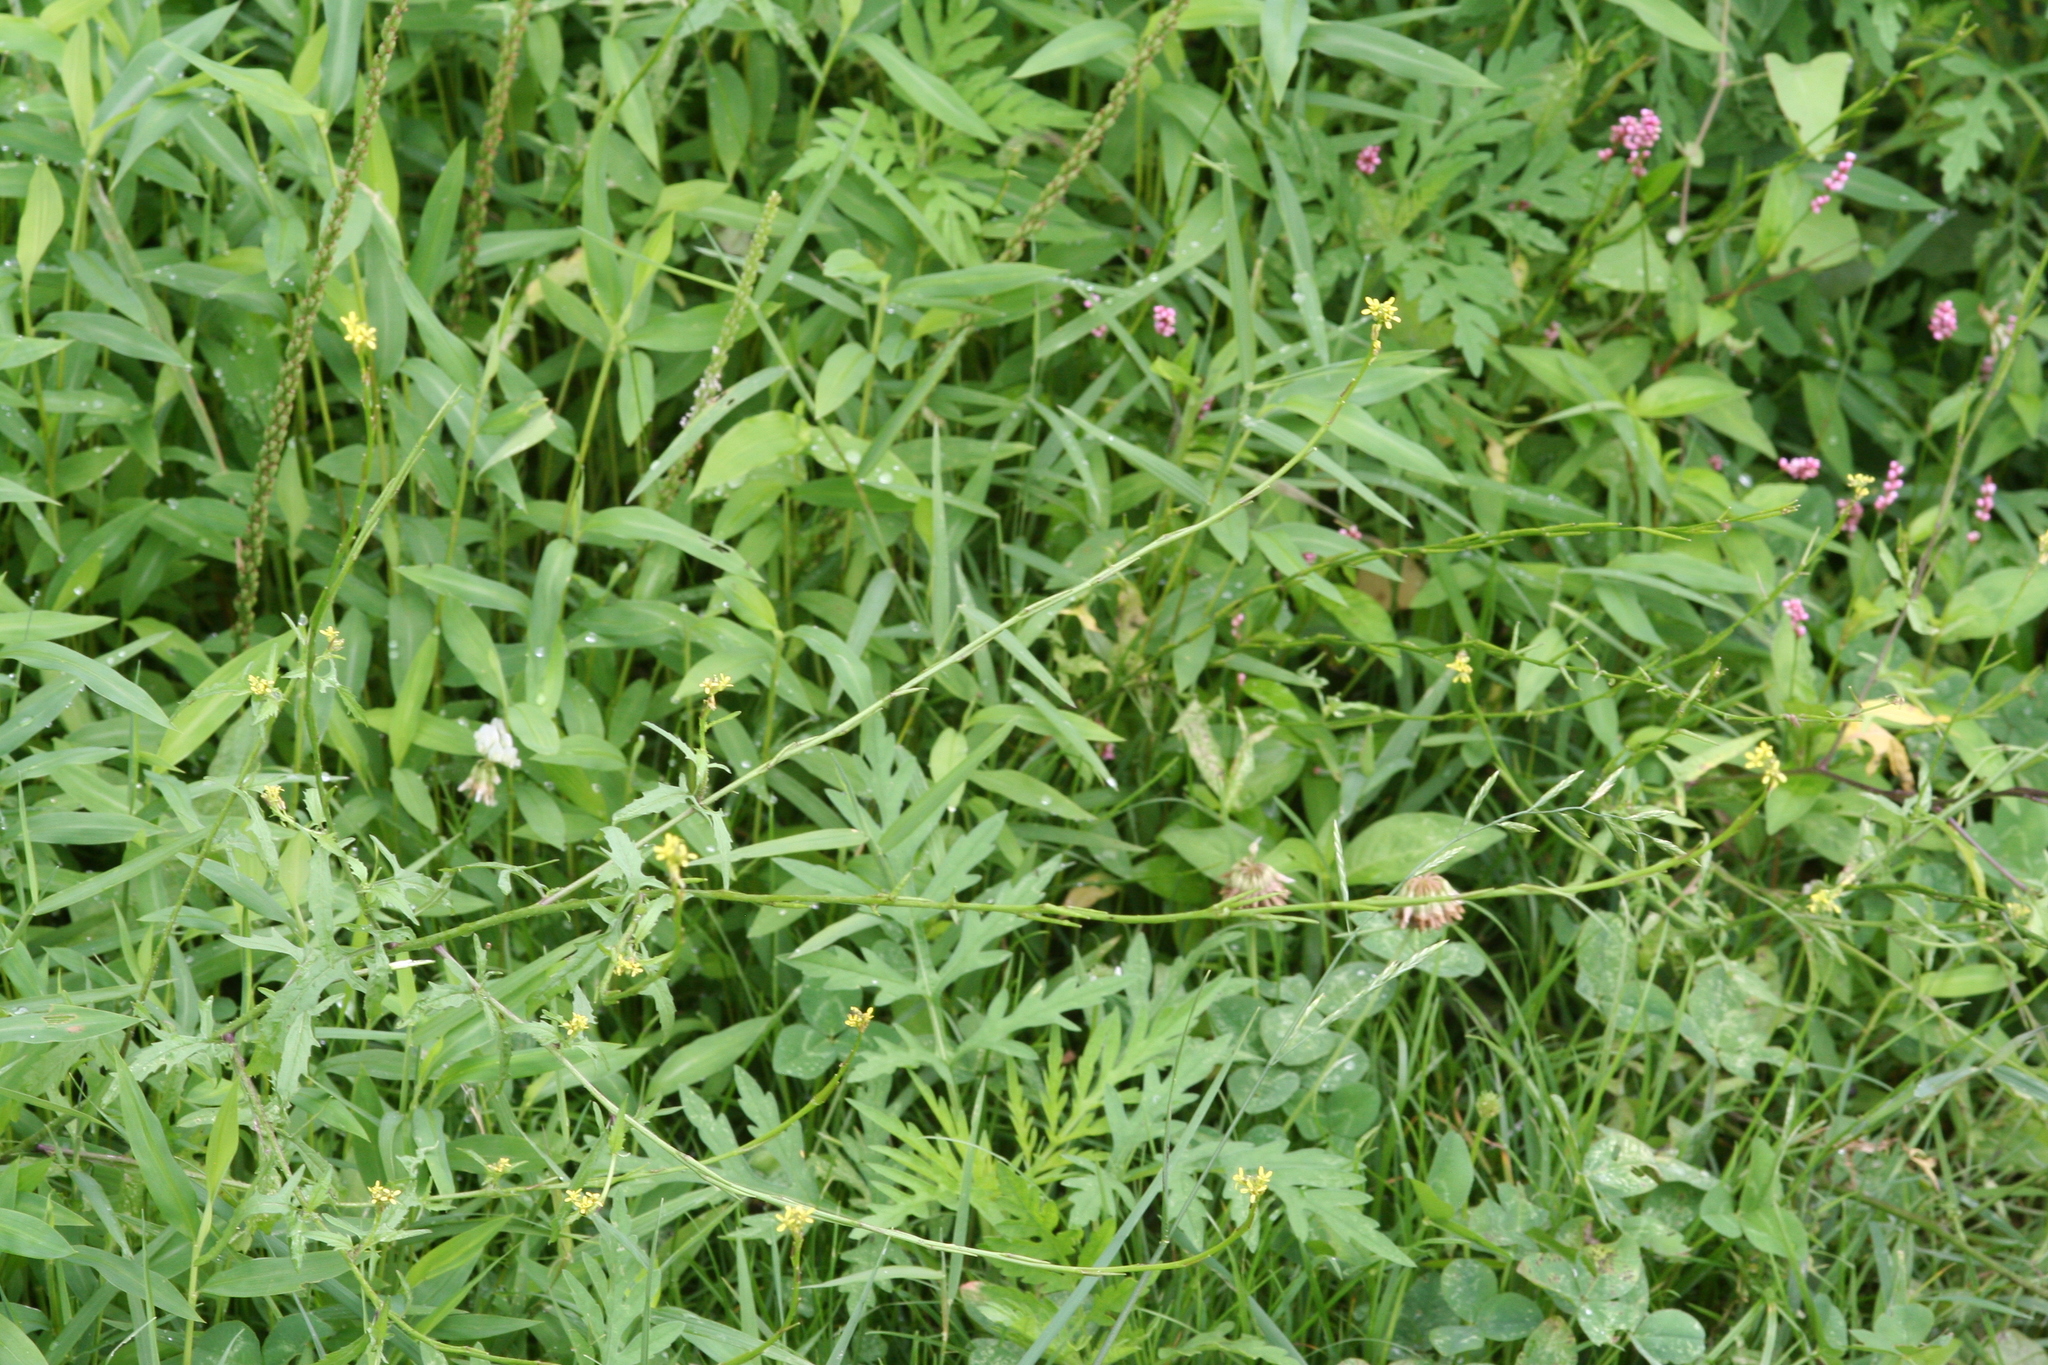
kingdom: Plantae
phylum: Tracheophyta
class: Magnoliopsida
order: Brassicales
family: Brassicaceae
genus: Sisymbrium
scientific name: Sisymbrium officinale
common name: Hedge mustard
